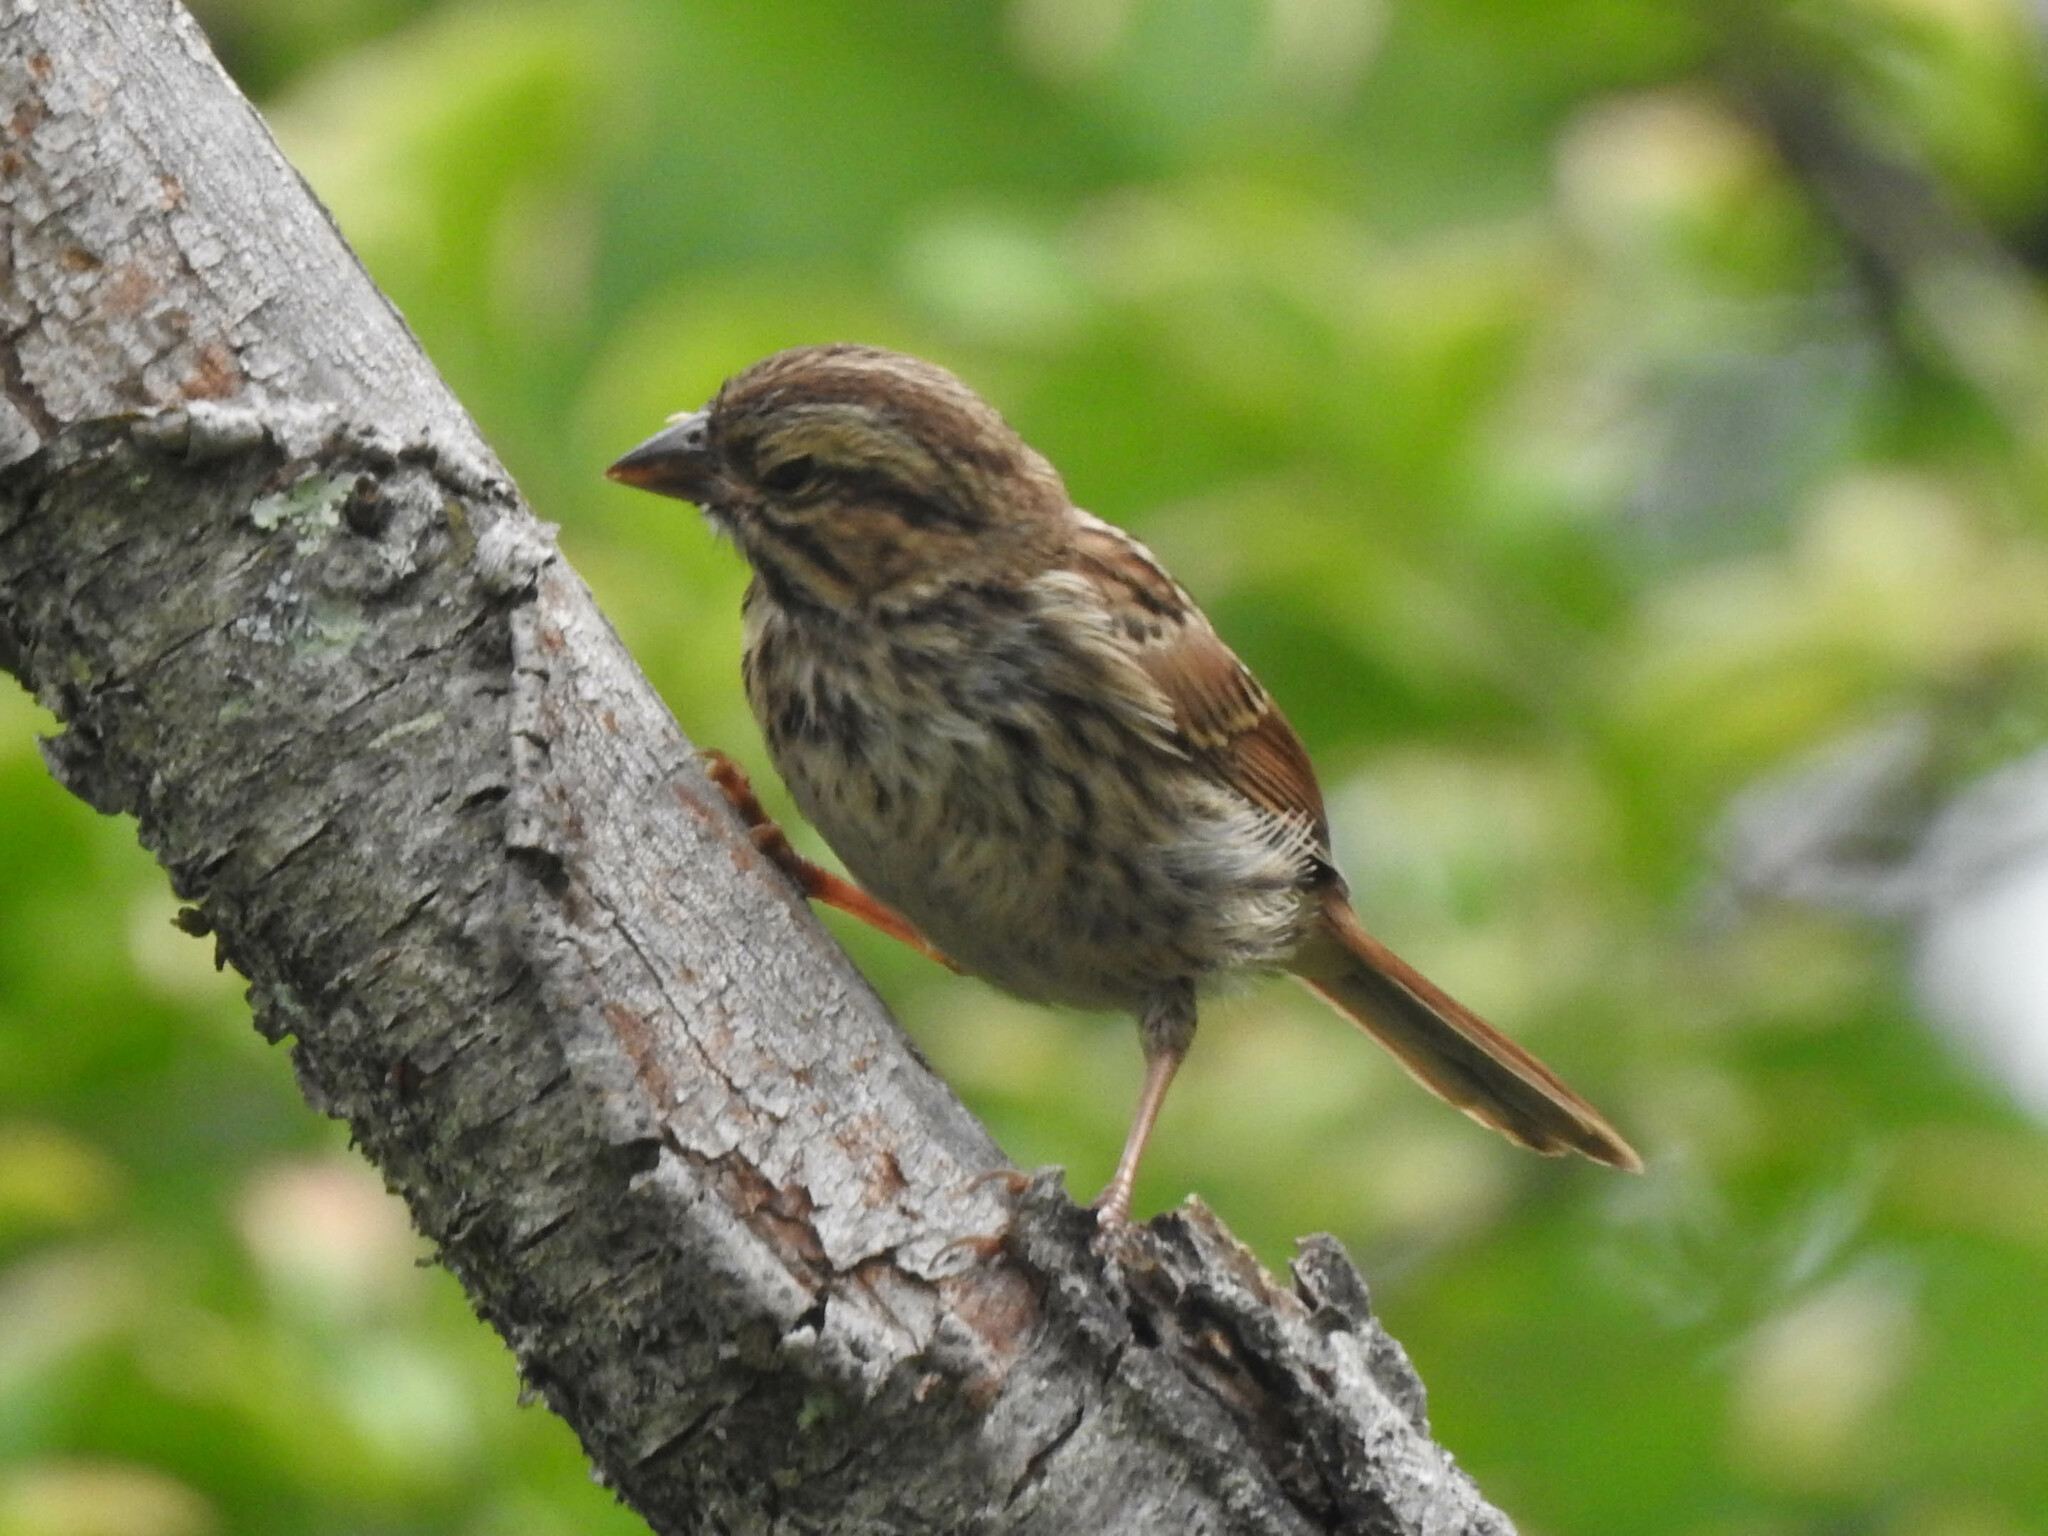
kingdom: Animalia
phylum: Chordata
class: Aves
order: Passeriformes
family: Passerellidae
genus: Melospiza
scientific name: Melospiza melodia
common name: Song sparrow
